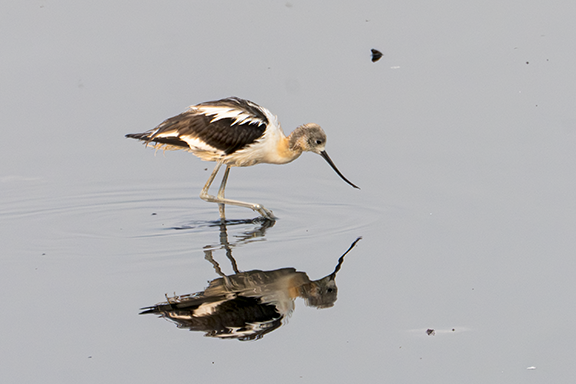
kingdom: Animalia
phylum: Chordata
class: Aves
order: Charadriiformes
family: Recurvirostridae
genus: Recurvirostra
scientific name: Recurvirostra americana
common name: American avocet
